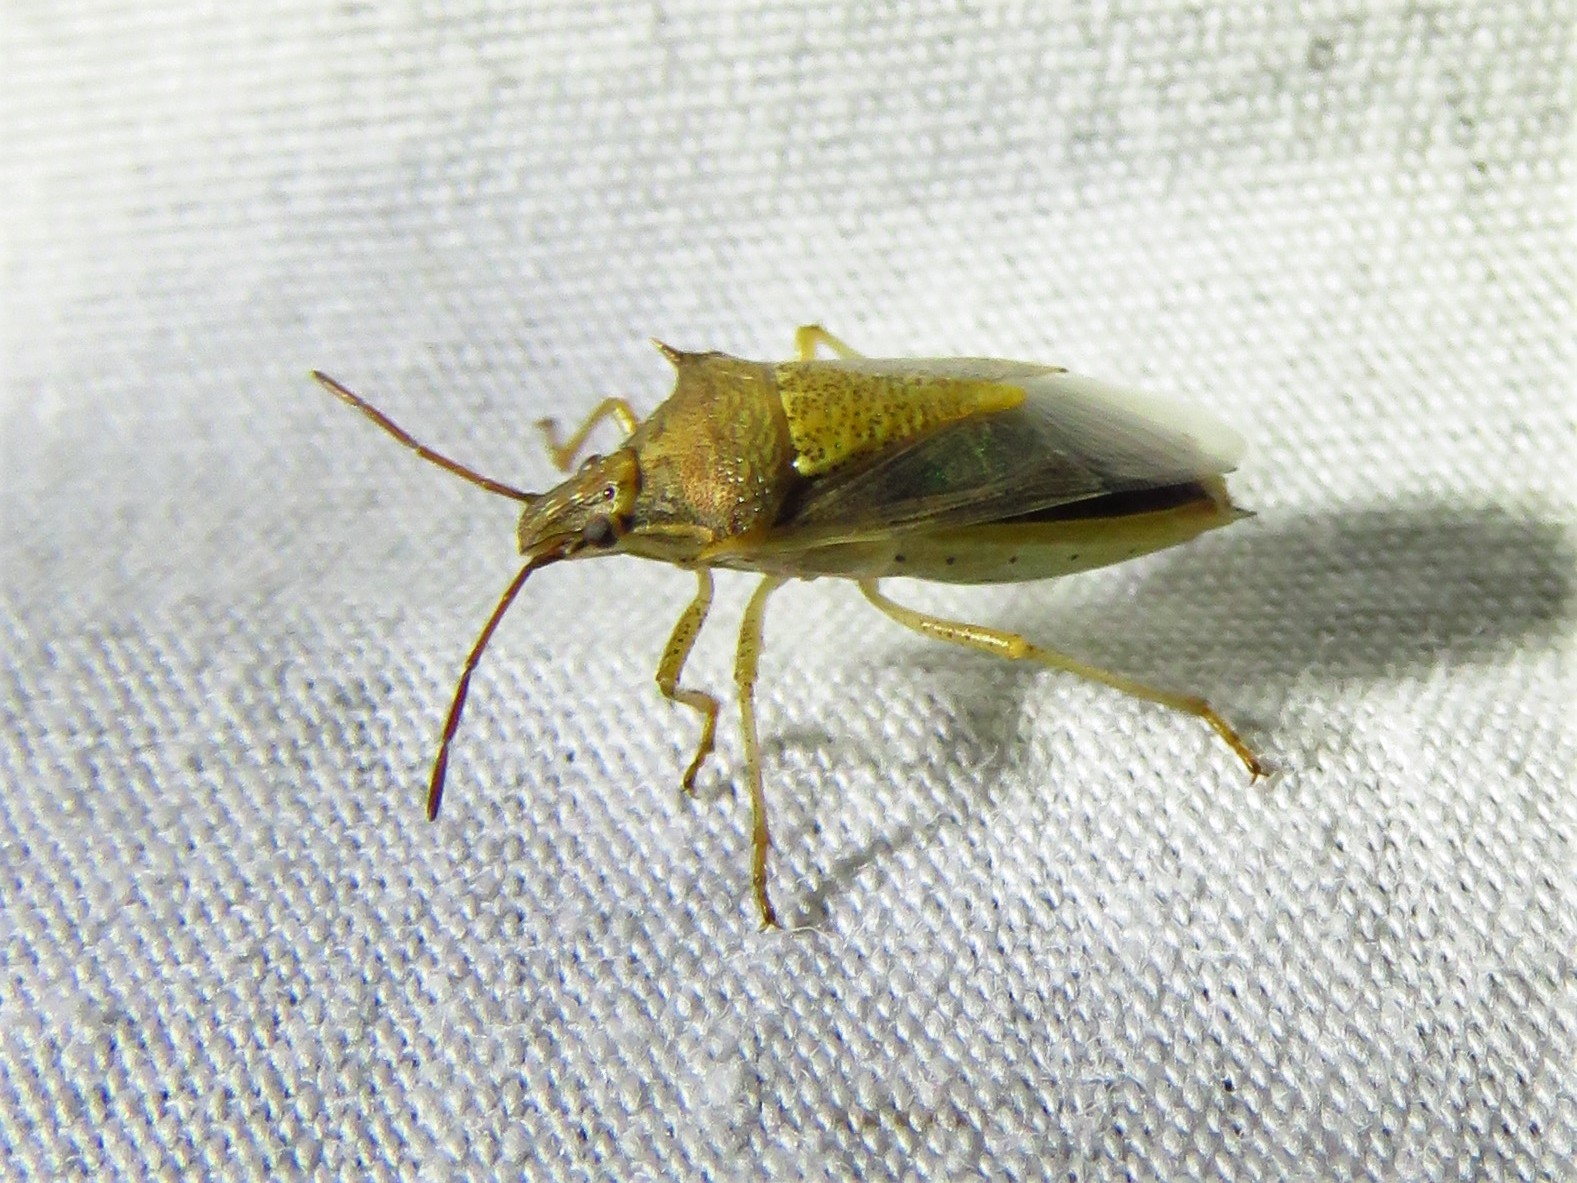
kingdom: Animalia
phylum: Arthropoda
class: Insecta
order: Hemiptera
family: Pentatomidae
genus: Oebalus
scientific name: Oebalus pugnax
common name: Rice stink bug
